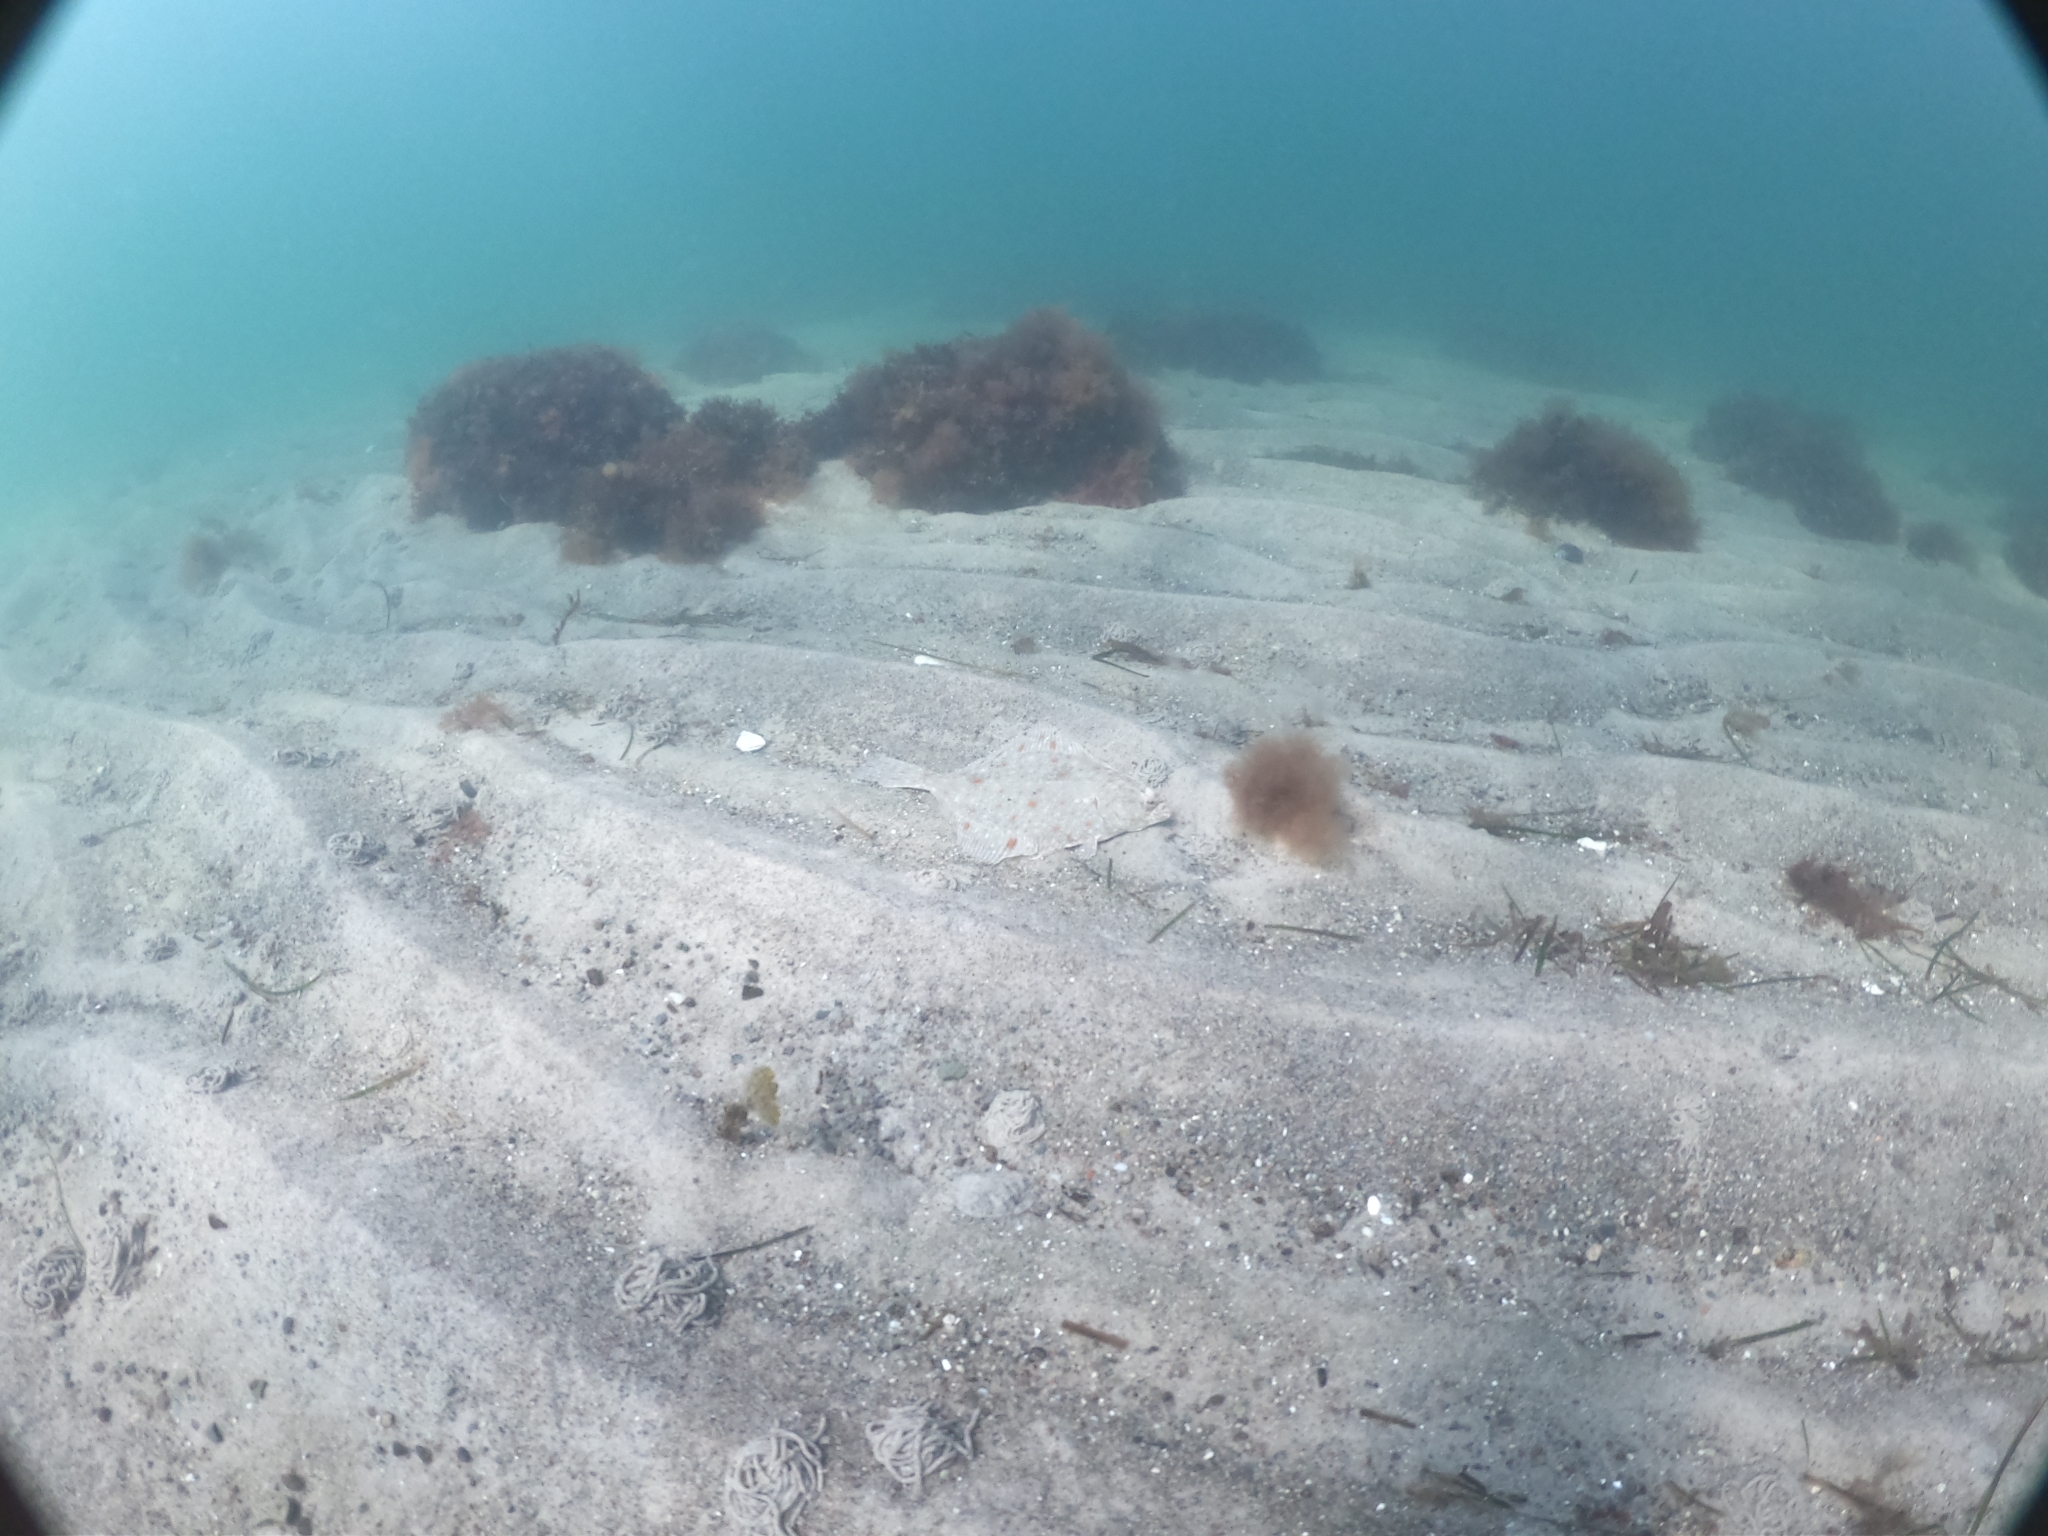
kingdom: Animalia
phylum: Chordata
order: Pleuronectiformes
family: Pleuronectidae
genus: Platichthys
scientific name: Platichthys flesus
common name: European flounder
